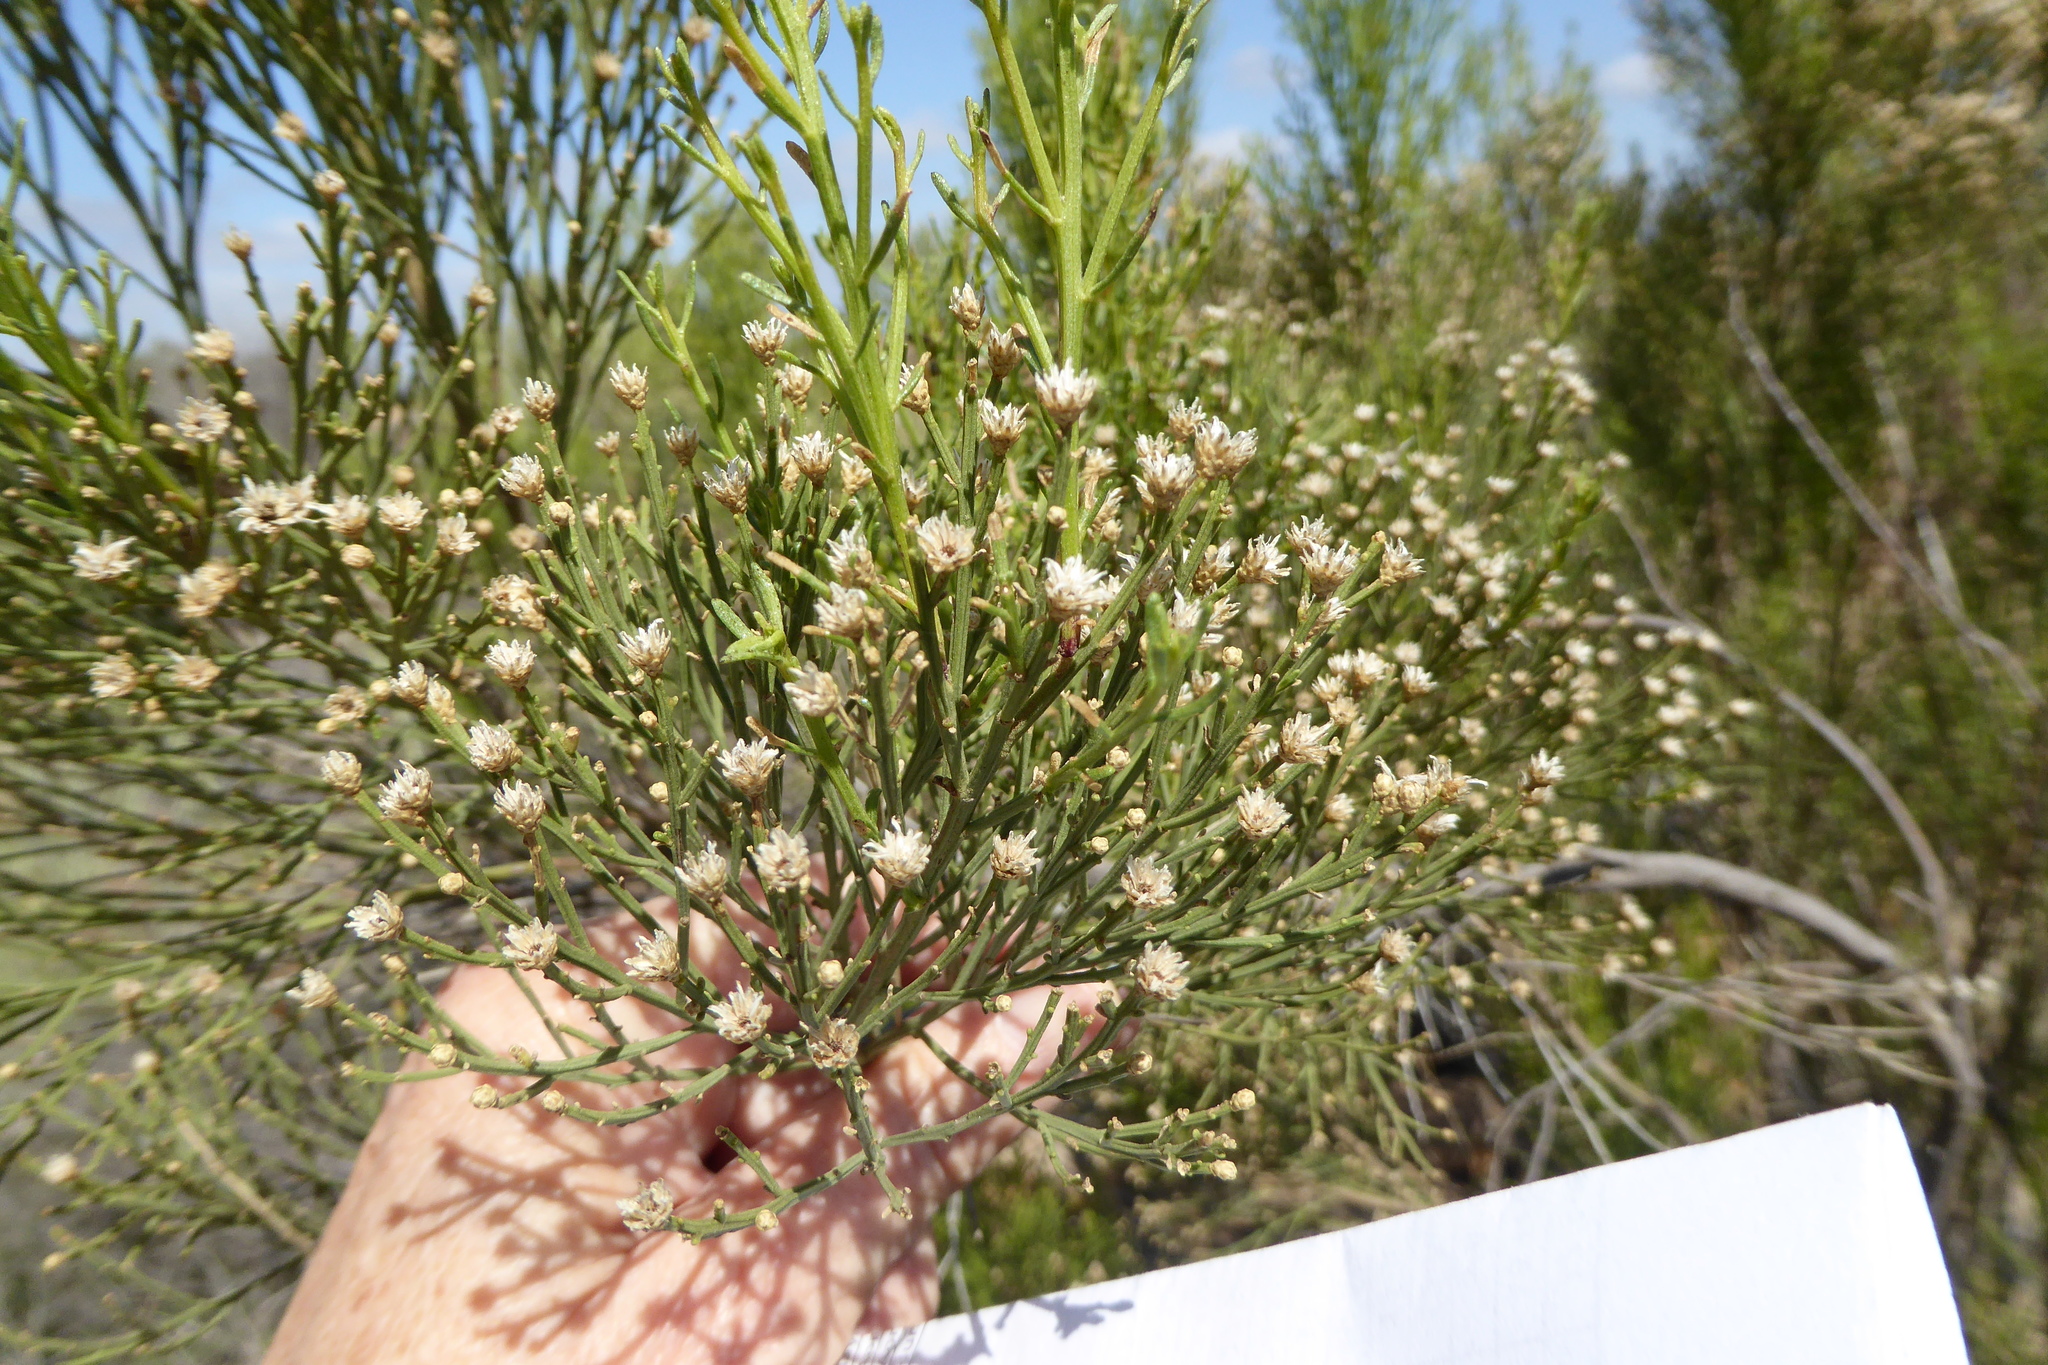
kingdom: Plantae
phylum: Tracheophyta
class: Magnoliopsida
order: Asterales
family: Asteraceae
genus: Baccharis
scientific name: Baccharis sarothroides
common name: Desert-broom
